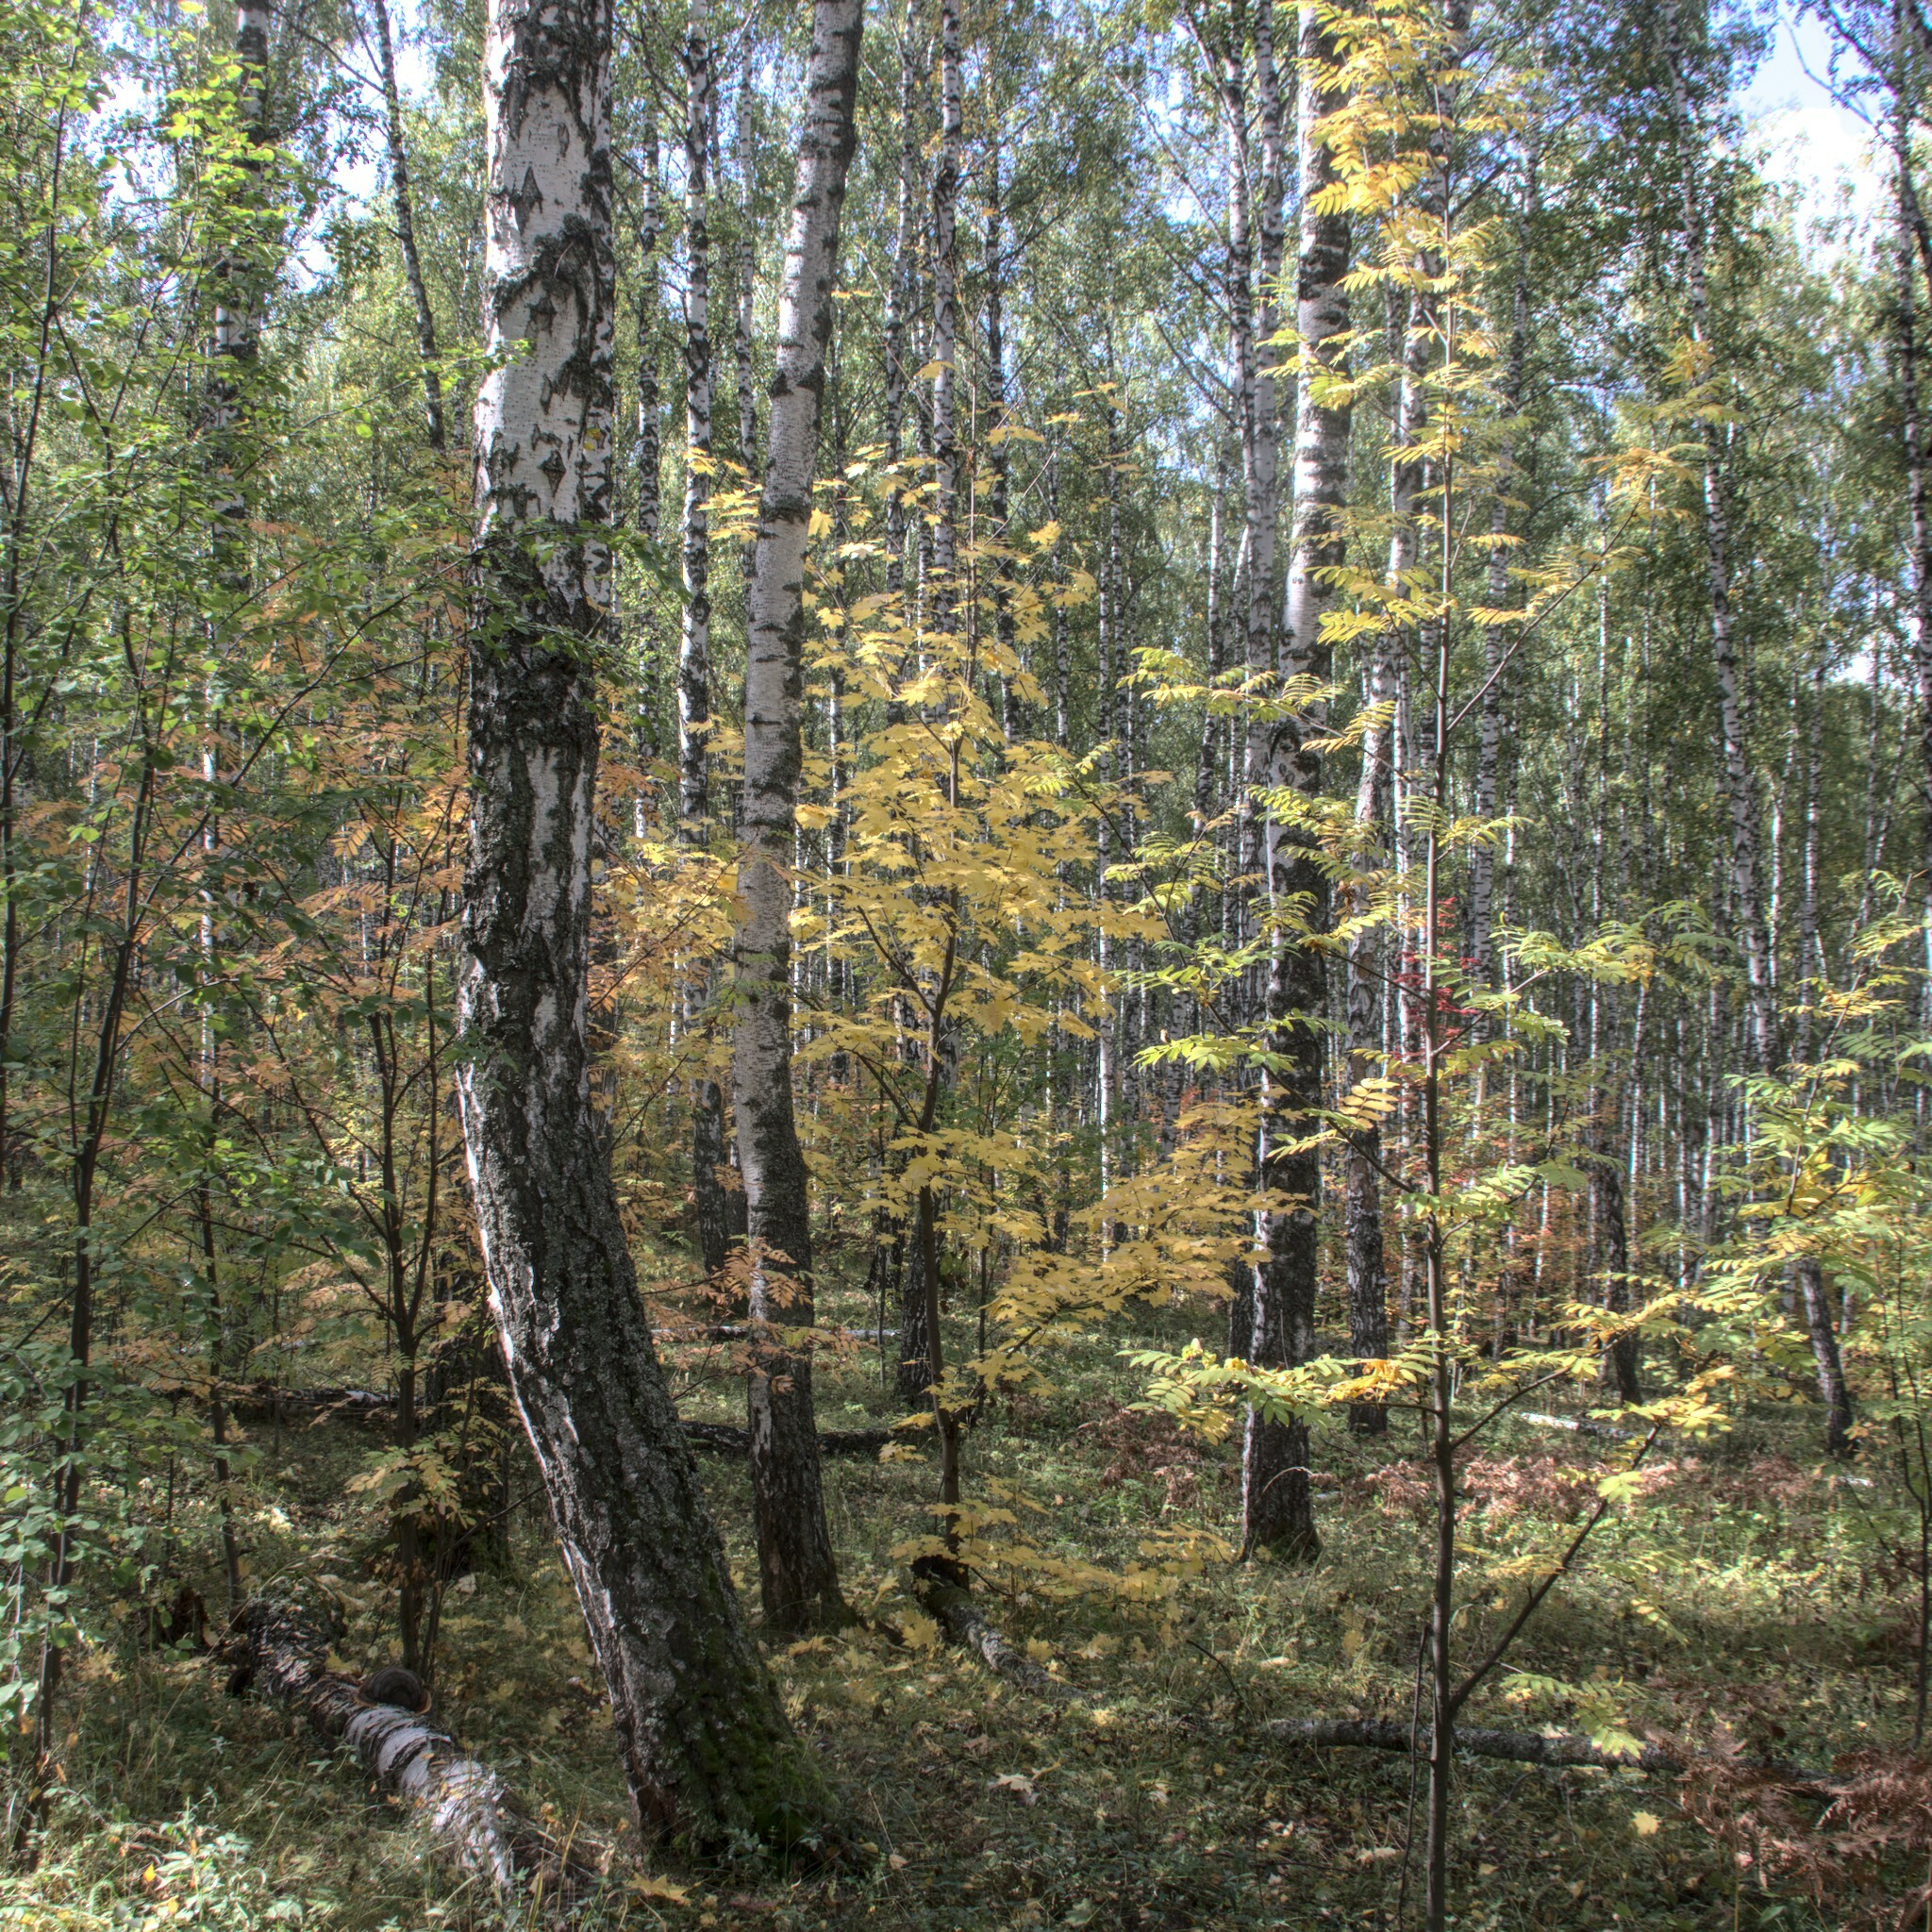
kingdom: Plantae
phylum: Tracheophyta
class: Magnoliopsida
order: Sapindales
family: Sapindaceae
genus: Acer
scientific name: Acer platanoides
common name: Norway maple
